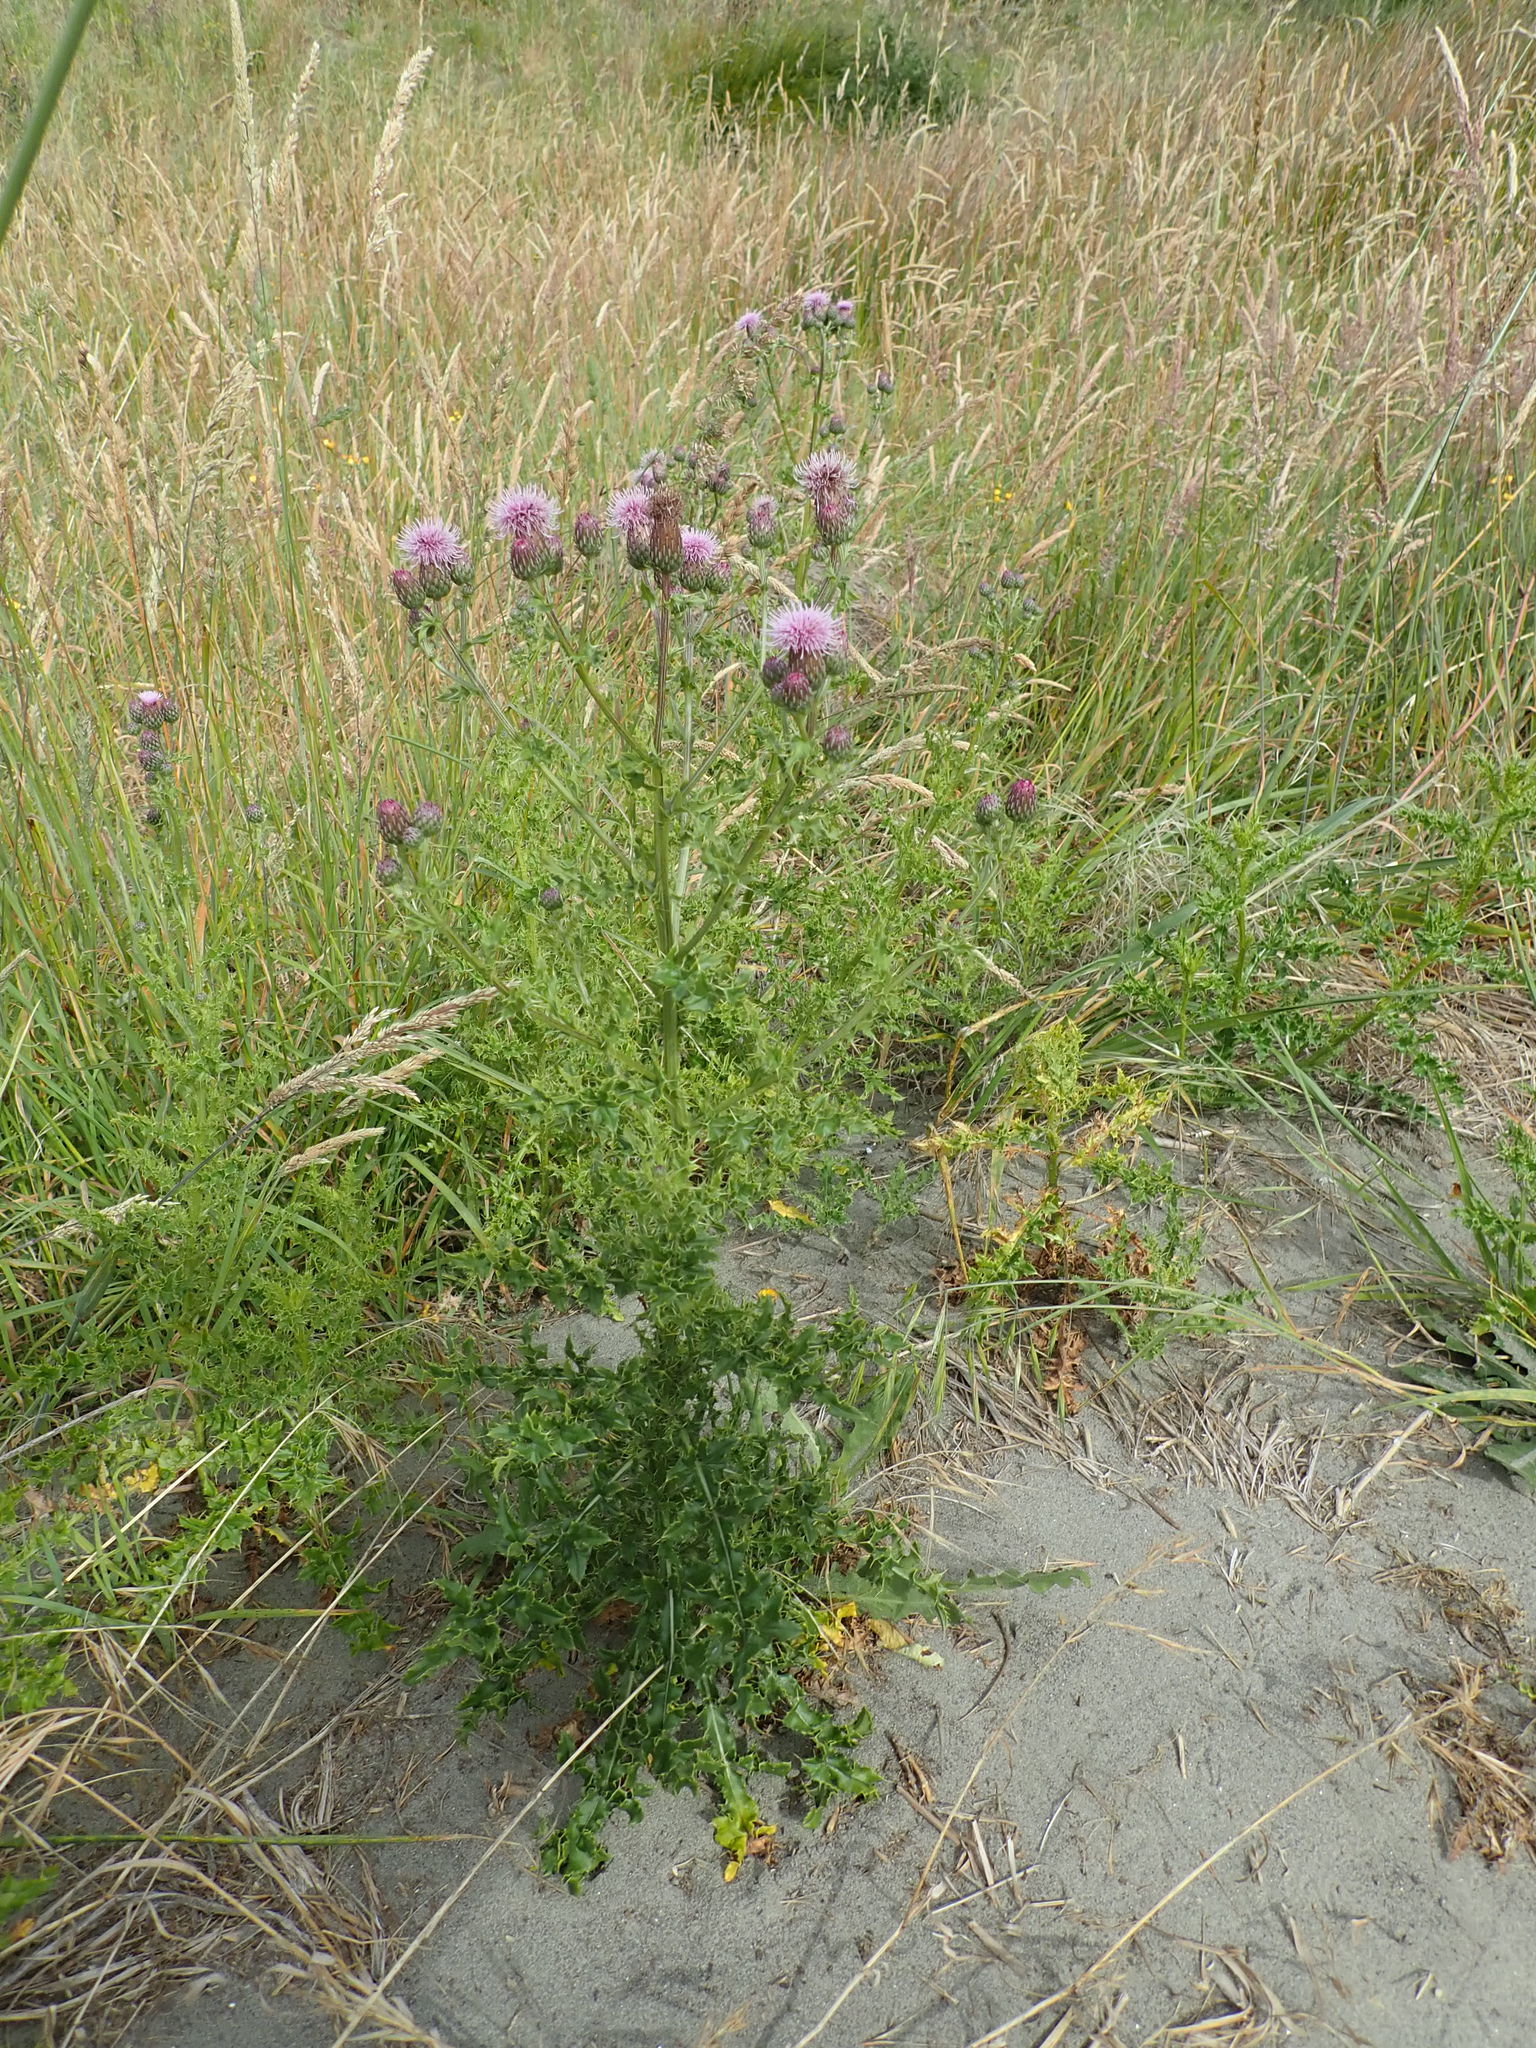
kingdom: Plantae
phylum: Tracheophyta
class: Magnoliopsida
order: Asterales
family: Asteraceae
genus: Cirsium
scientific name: Cirsium arvense
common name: Creeping thistle
